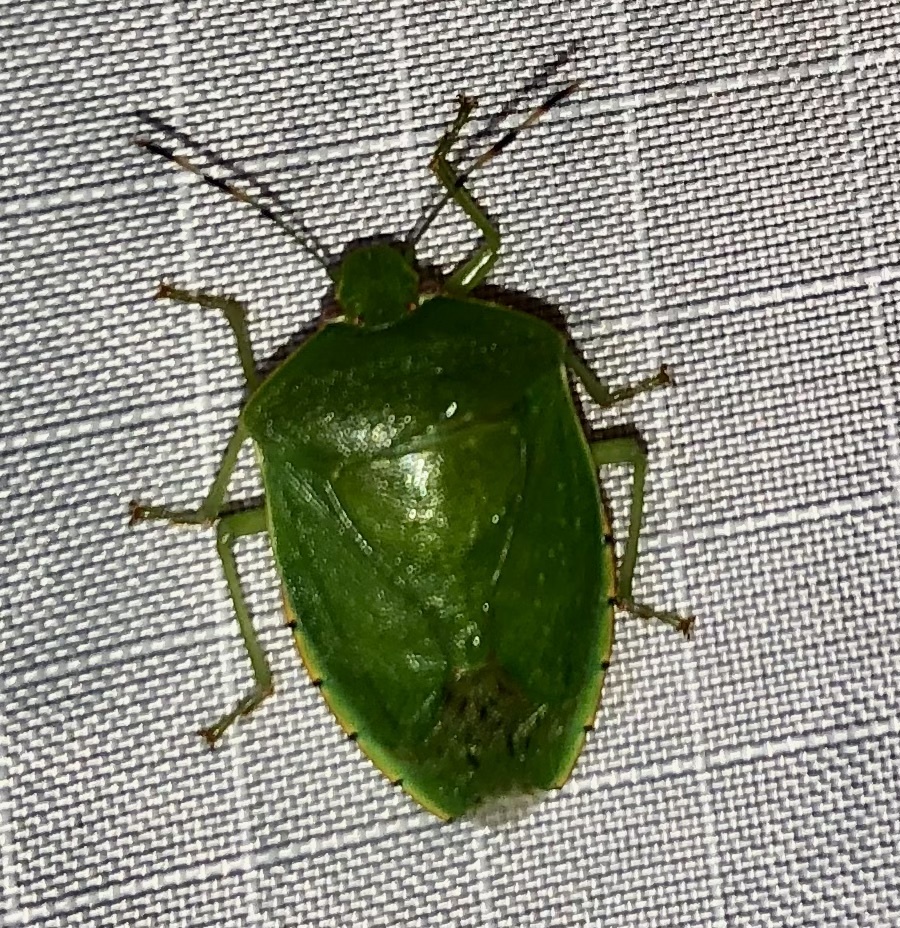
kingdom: Animalia
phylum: Arthropoda
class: Insecta
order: Hemiptera
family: Pentatomidae
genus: Chinavia
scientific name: Chinavia hilaris
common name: Green stink bug
